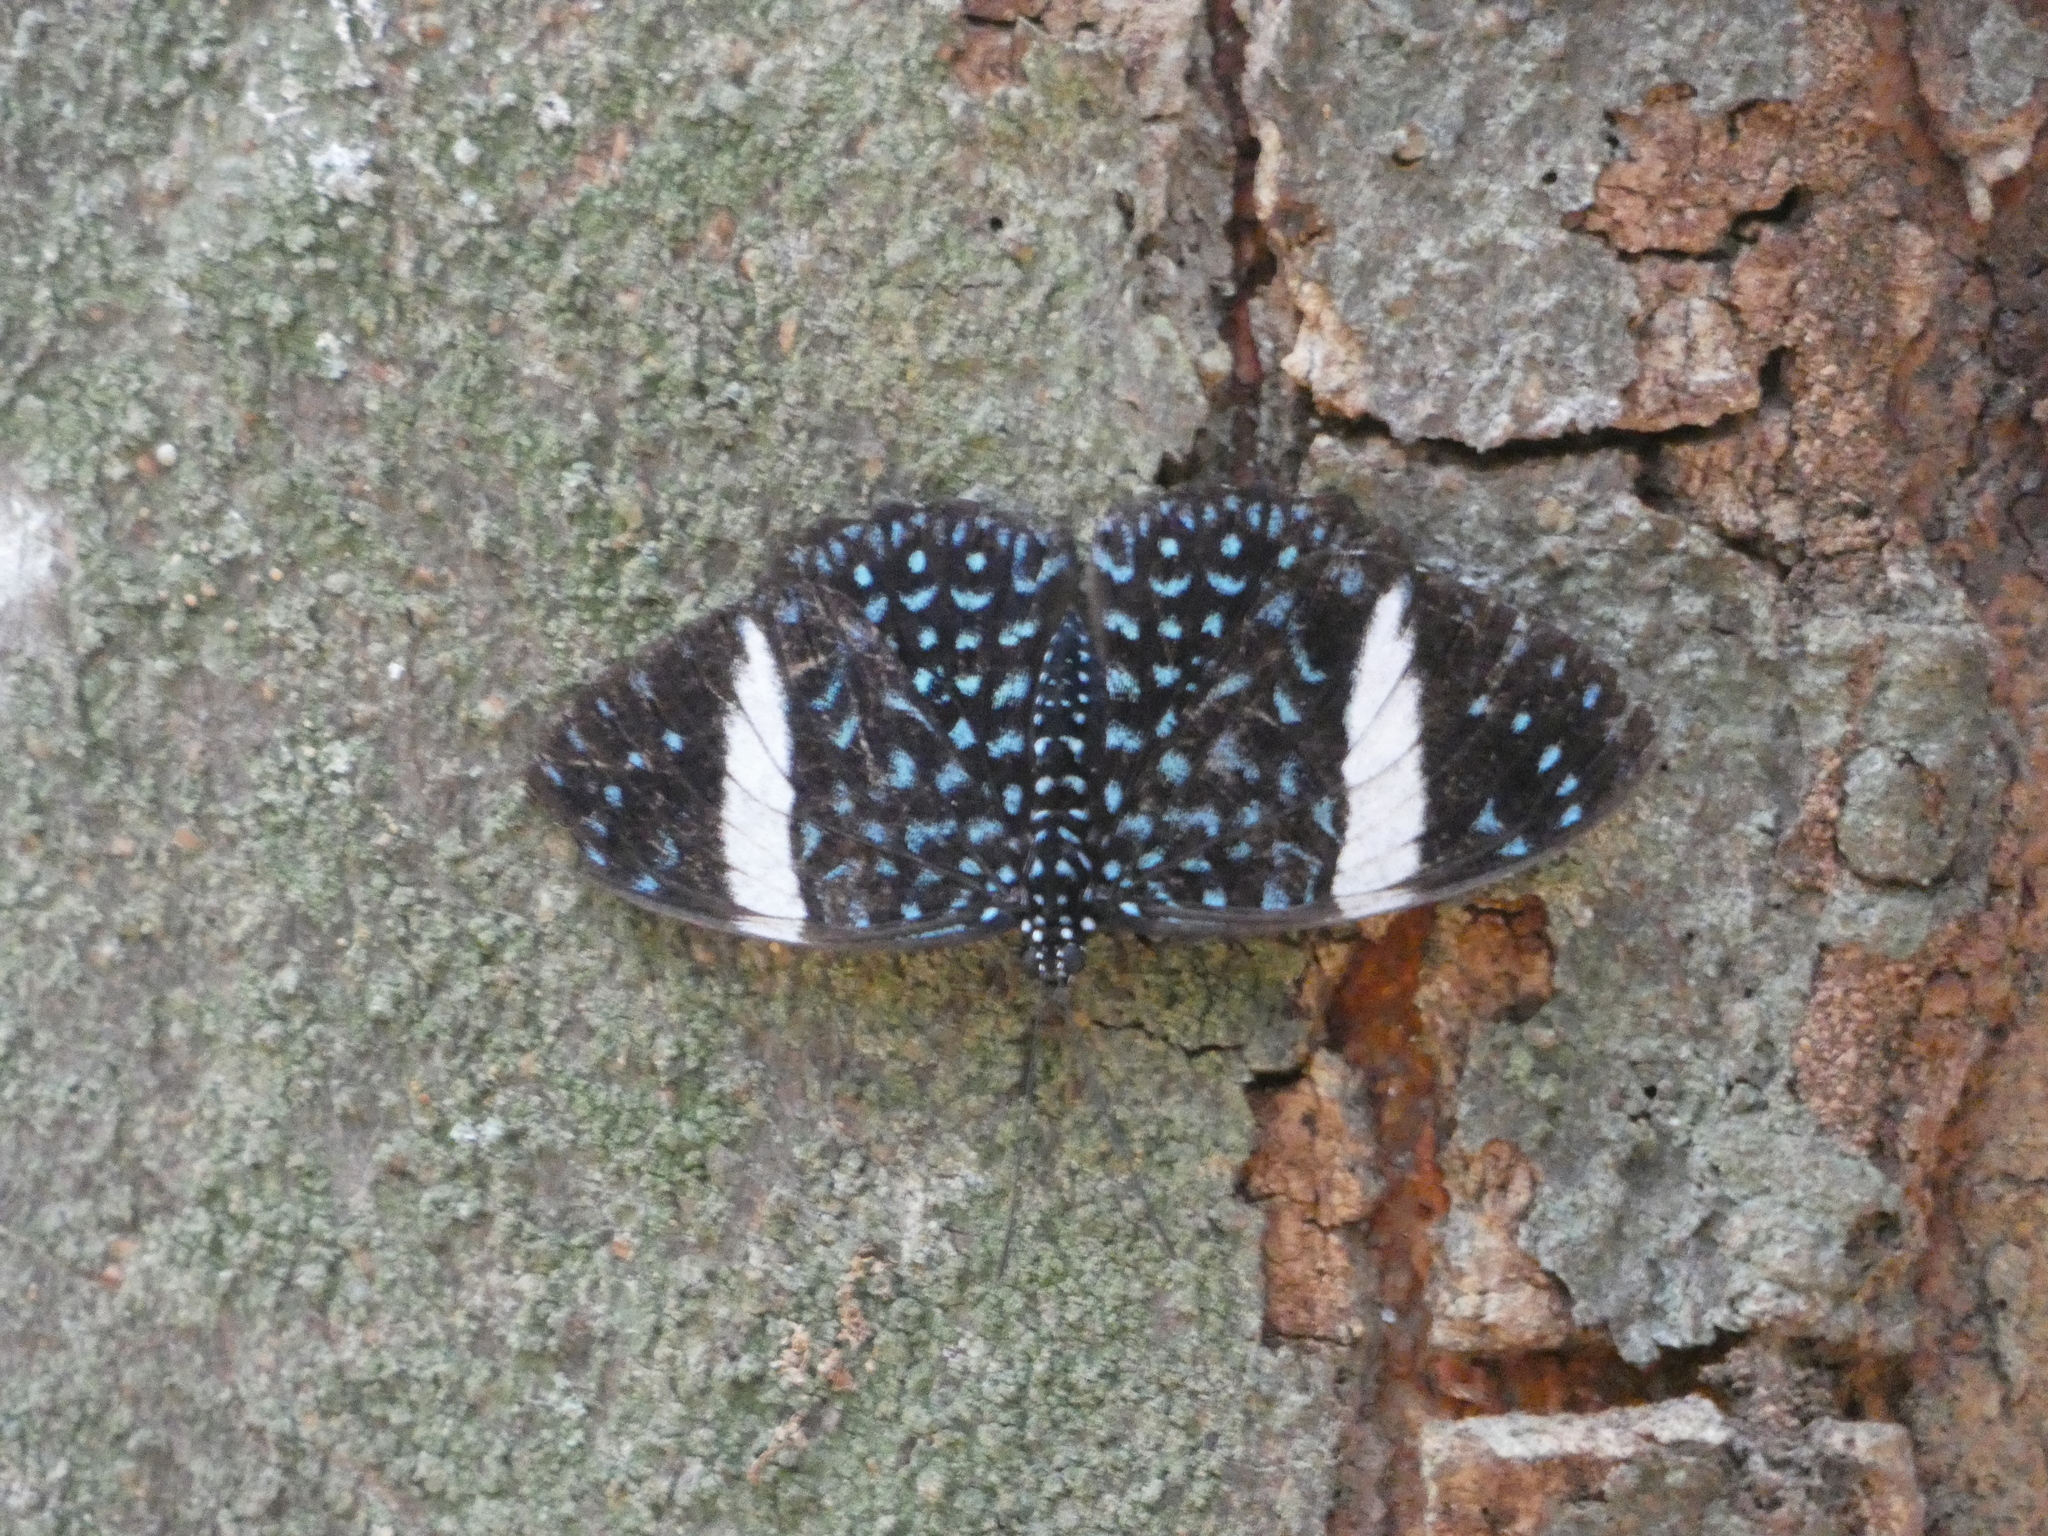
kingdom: Animalia
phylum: Arthropoda
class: Insecta
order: Lepidoptera
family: Nymphalidae
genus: Hamadryas
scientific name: Hamadryas laodamia
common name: Starry night cracker
